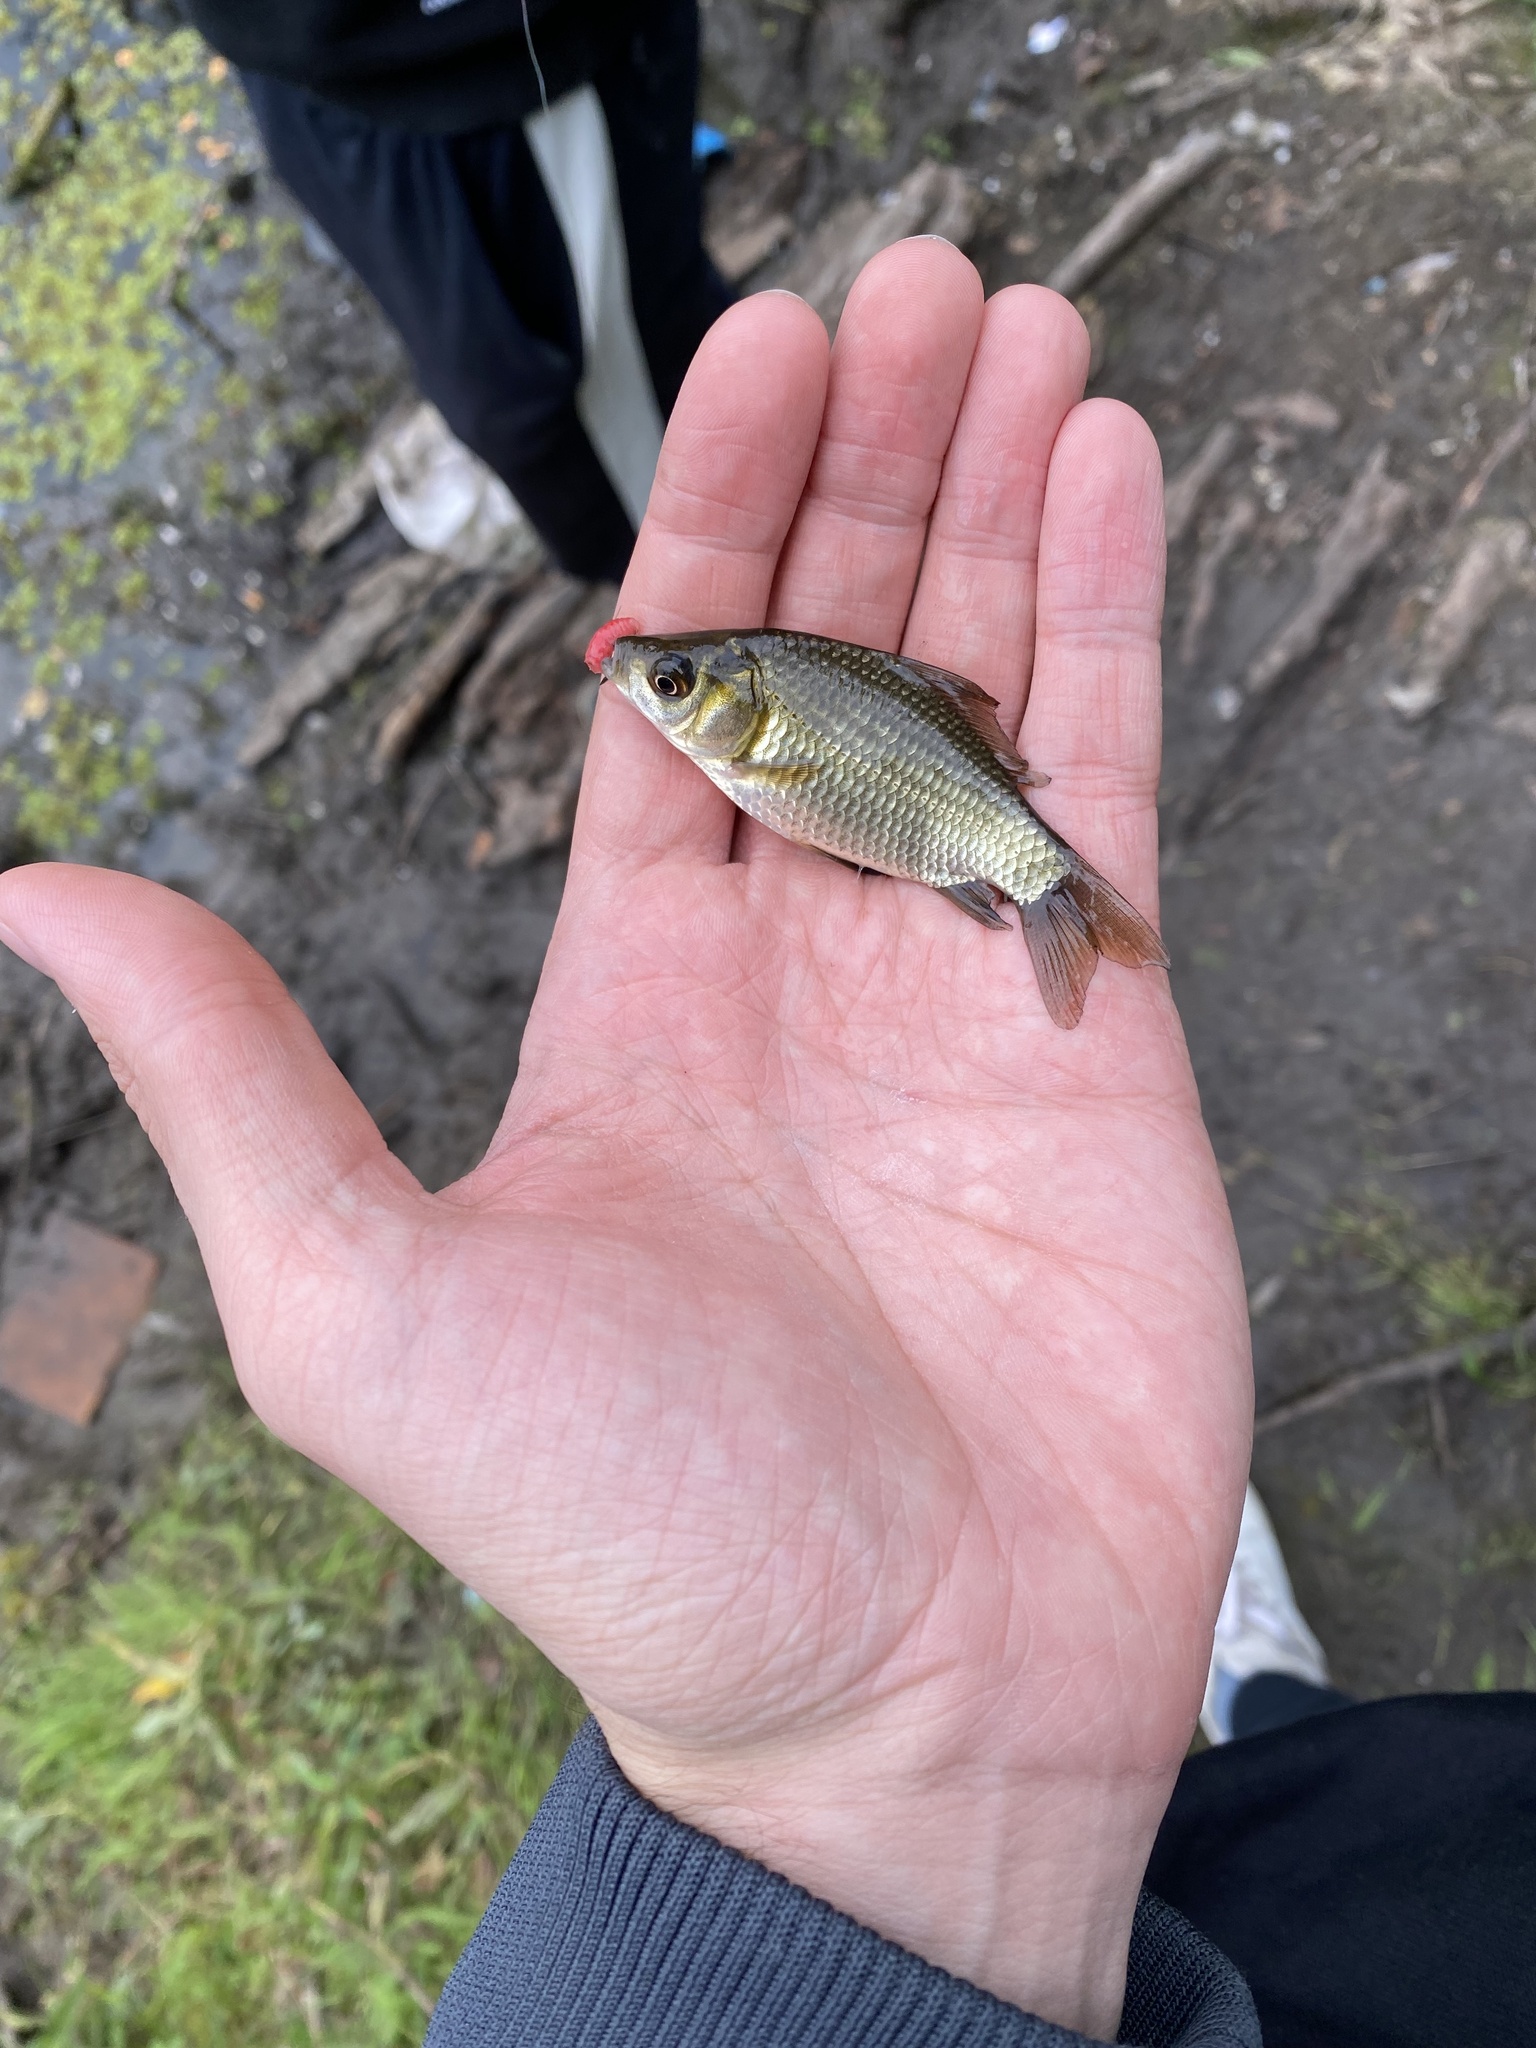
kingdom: Animalia
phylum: Chordata
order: Cypriniformes
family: Cyprinidae
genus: Carassius
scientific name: Carassius gibelio
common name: Prussian carp
